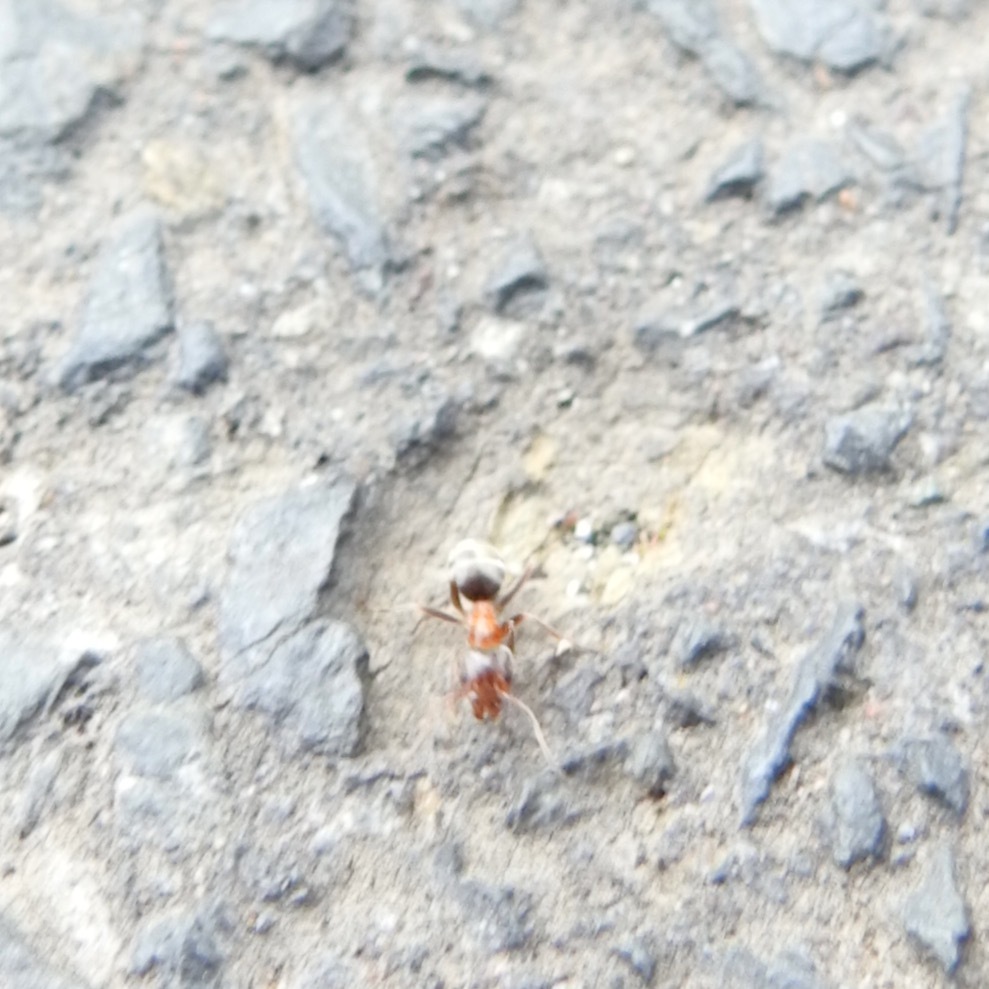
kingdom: Animalia
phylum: Arthropoda
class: Insecta
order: Hymenoptera
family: Formicidae
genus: Liometopum
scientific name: Liometopum occidentale
